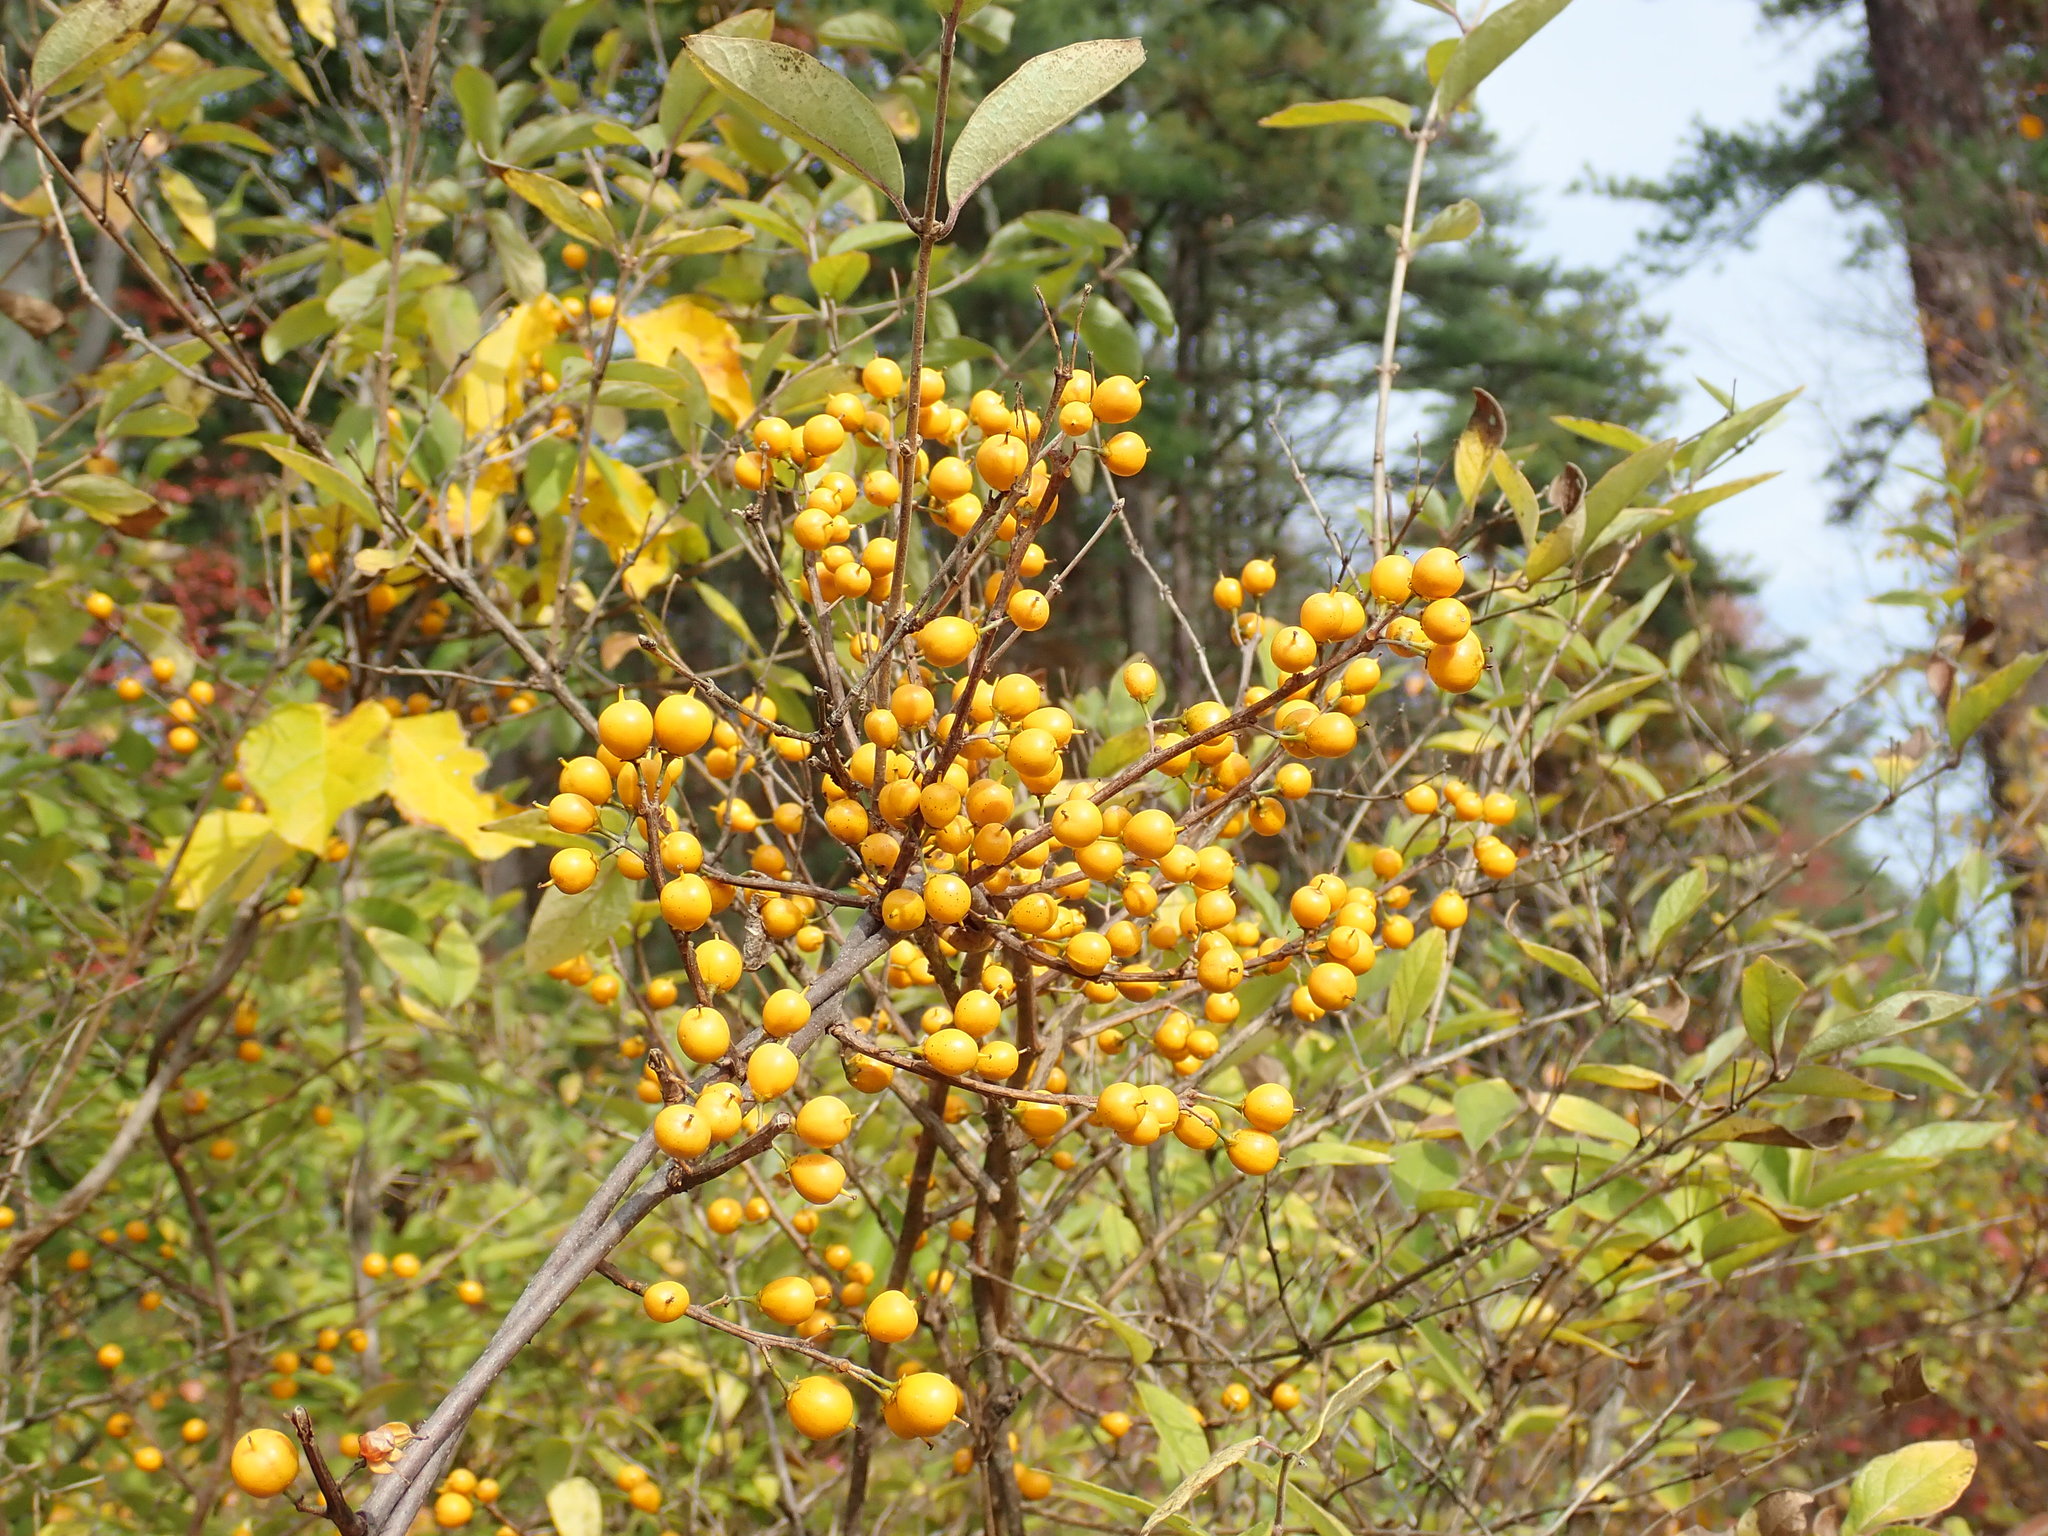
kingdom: Plantae
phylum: Tracheophyta
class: Magnoliopsida
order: Celastrales
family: Celastraceae
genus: Celastrus
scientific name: Celastrus orbiculatus
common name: Oriental bittersweet
